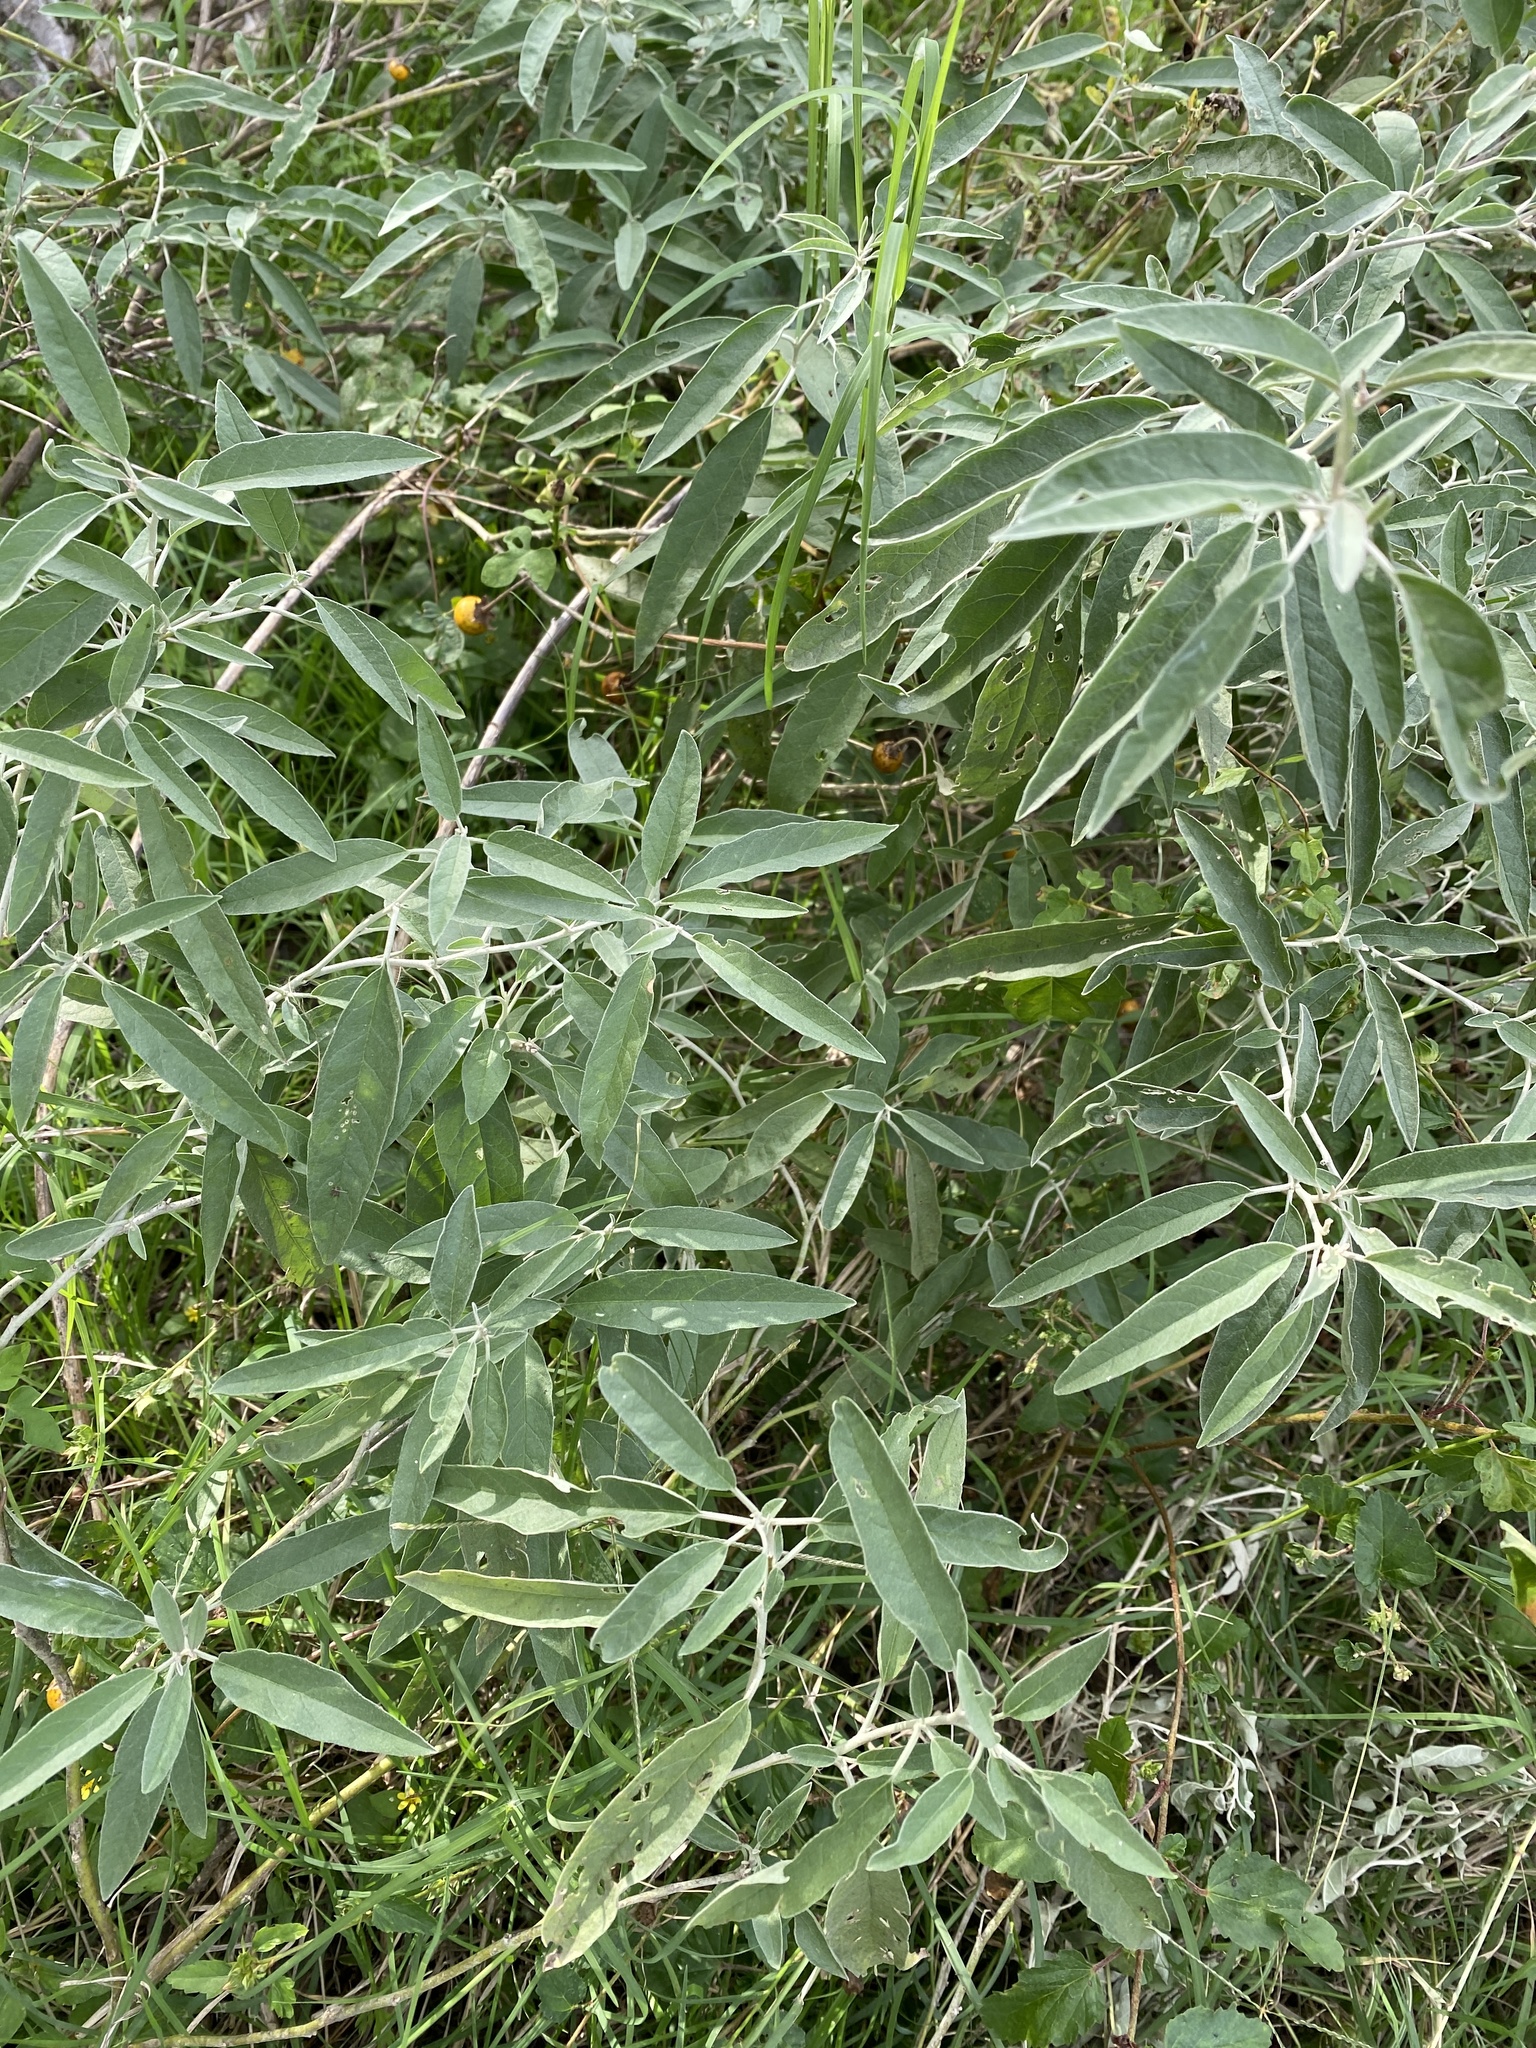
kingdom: Plantae
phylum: Tracheophyta
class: Magnoliopsida
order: Solanales
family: Solanaceae
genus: Solanum
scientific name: Solanum elaeagnifolium
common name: Silverleaf nightshade
